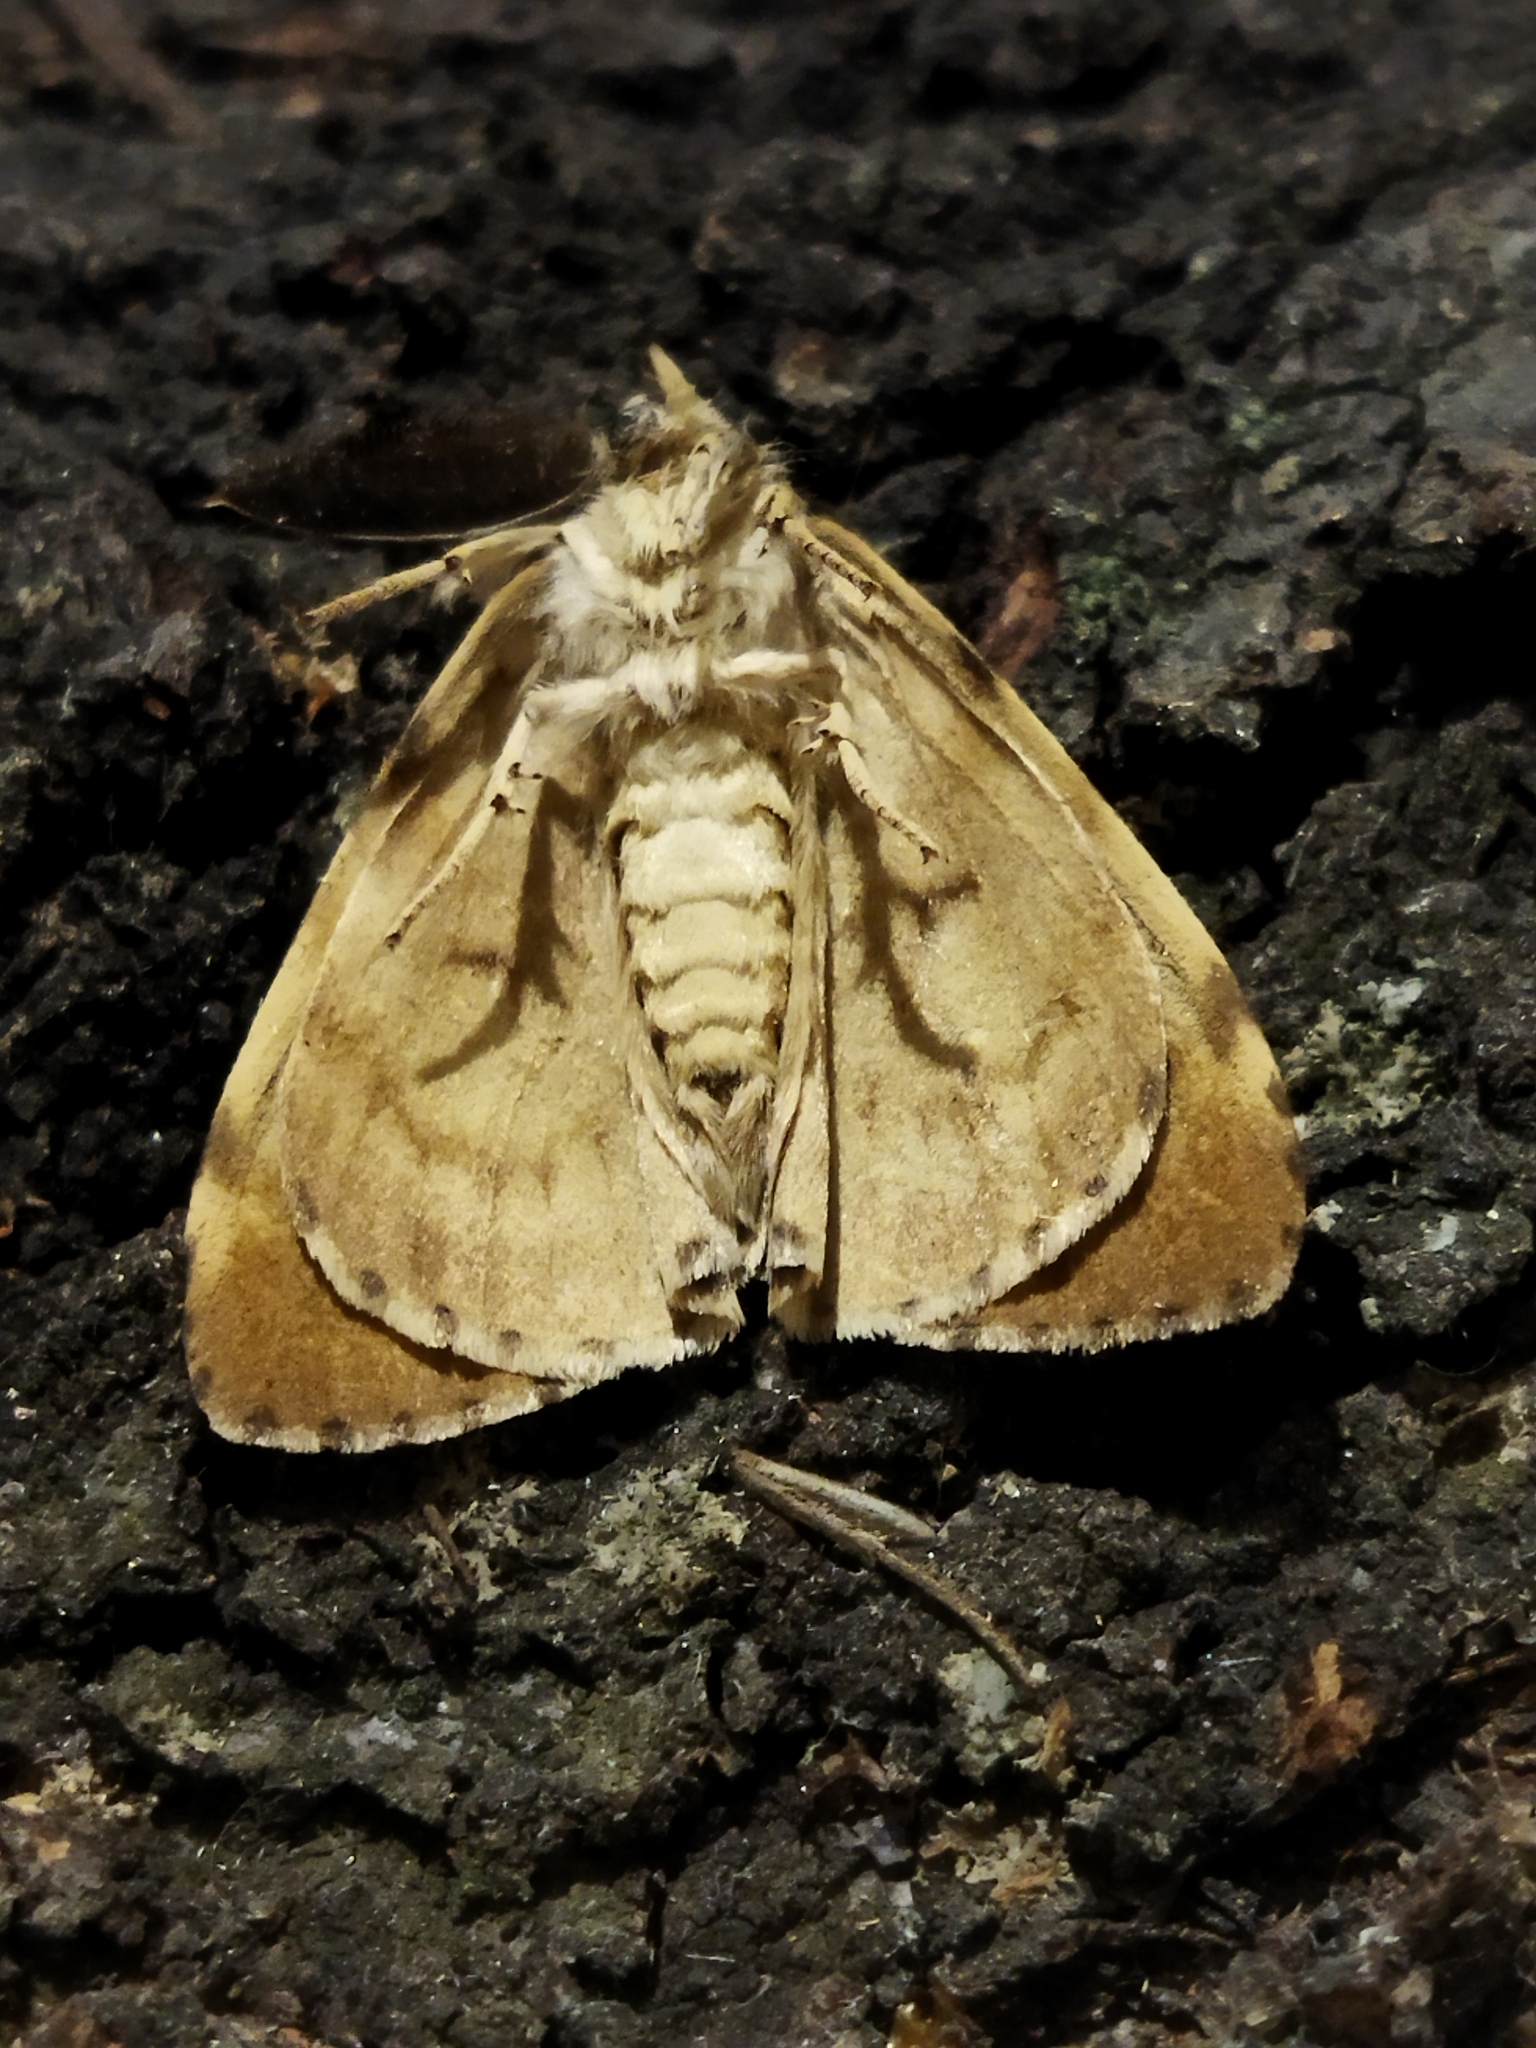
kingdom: Animalia
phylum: Arthropoda
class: Insecta
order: Lepidoptera
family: Erebidae
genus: Lymantria
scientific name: Lymantria dispar
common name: Gypsy moth
